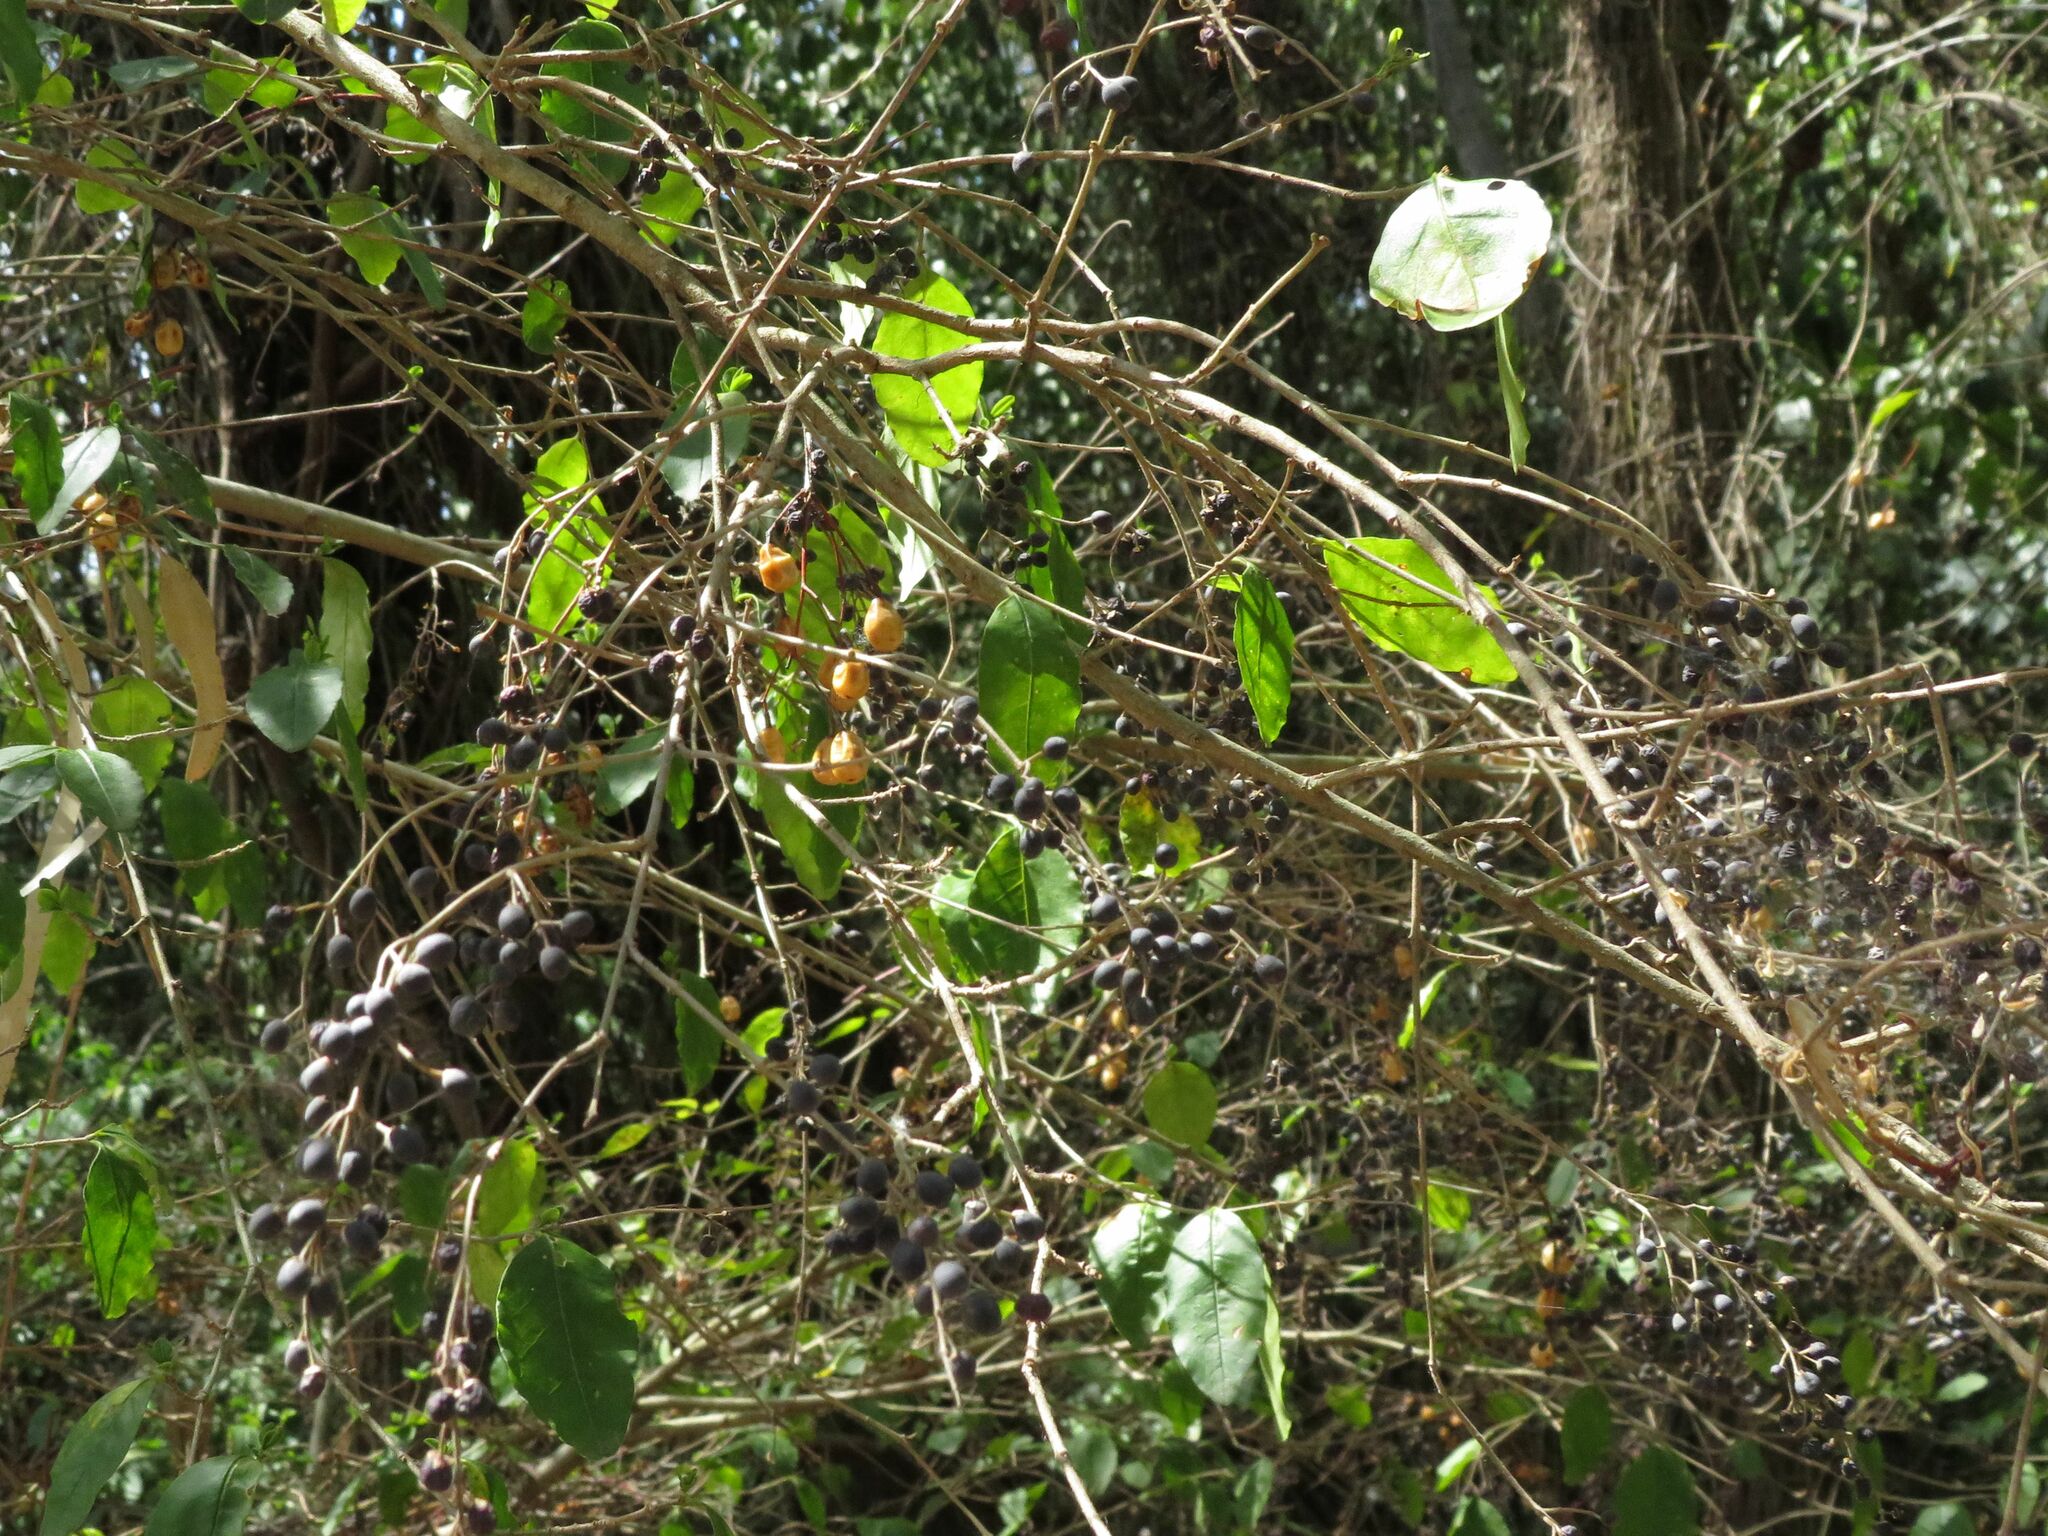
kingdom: Plantae
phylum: Tracheophyta
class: Magnoliopsida
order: Lamiales
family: Oleaceae
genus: Ligustrum
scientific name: Ligustrum
